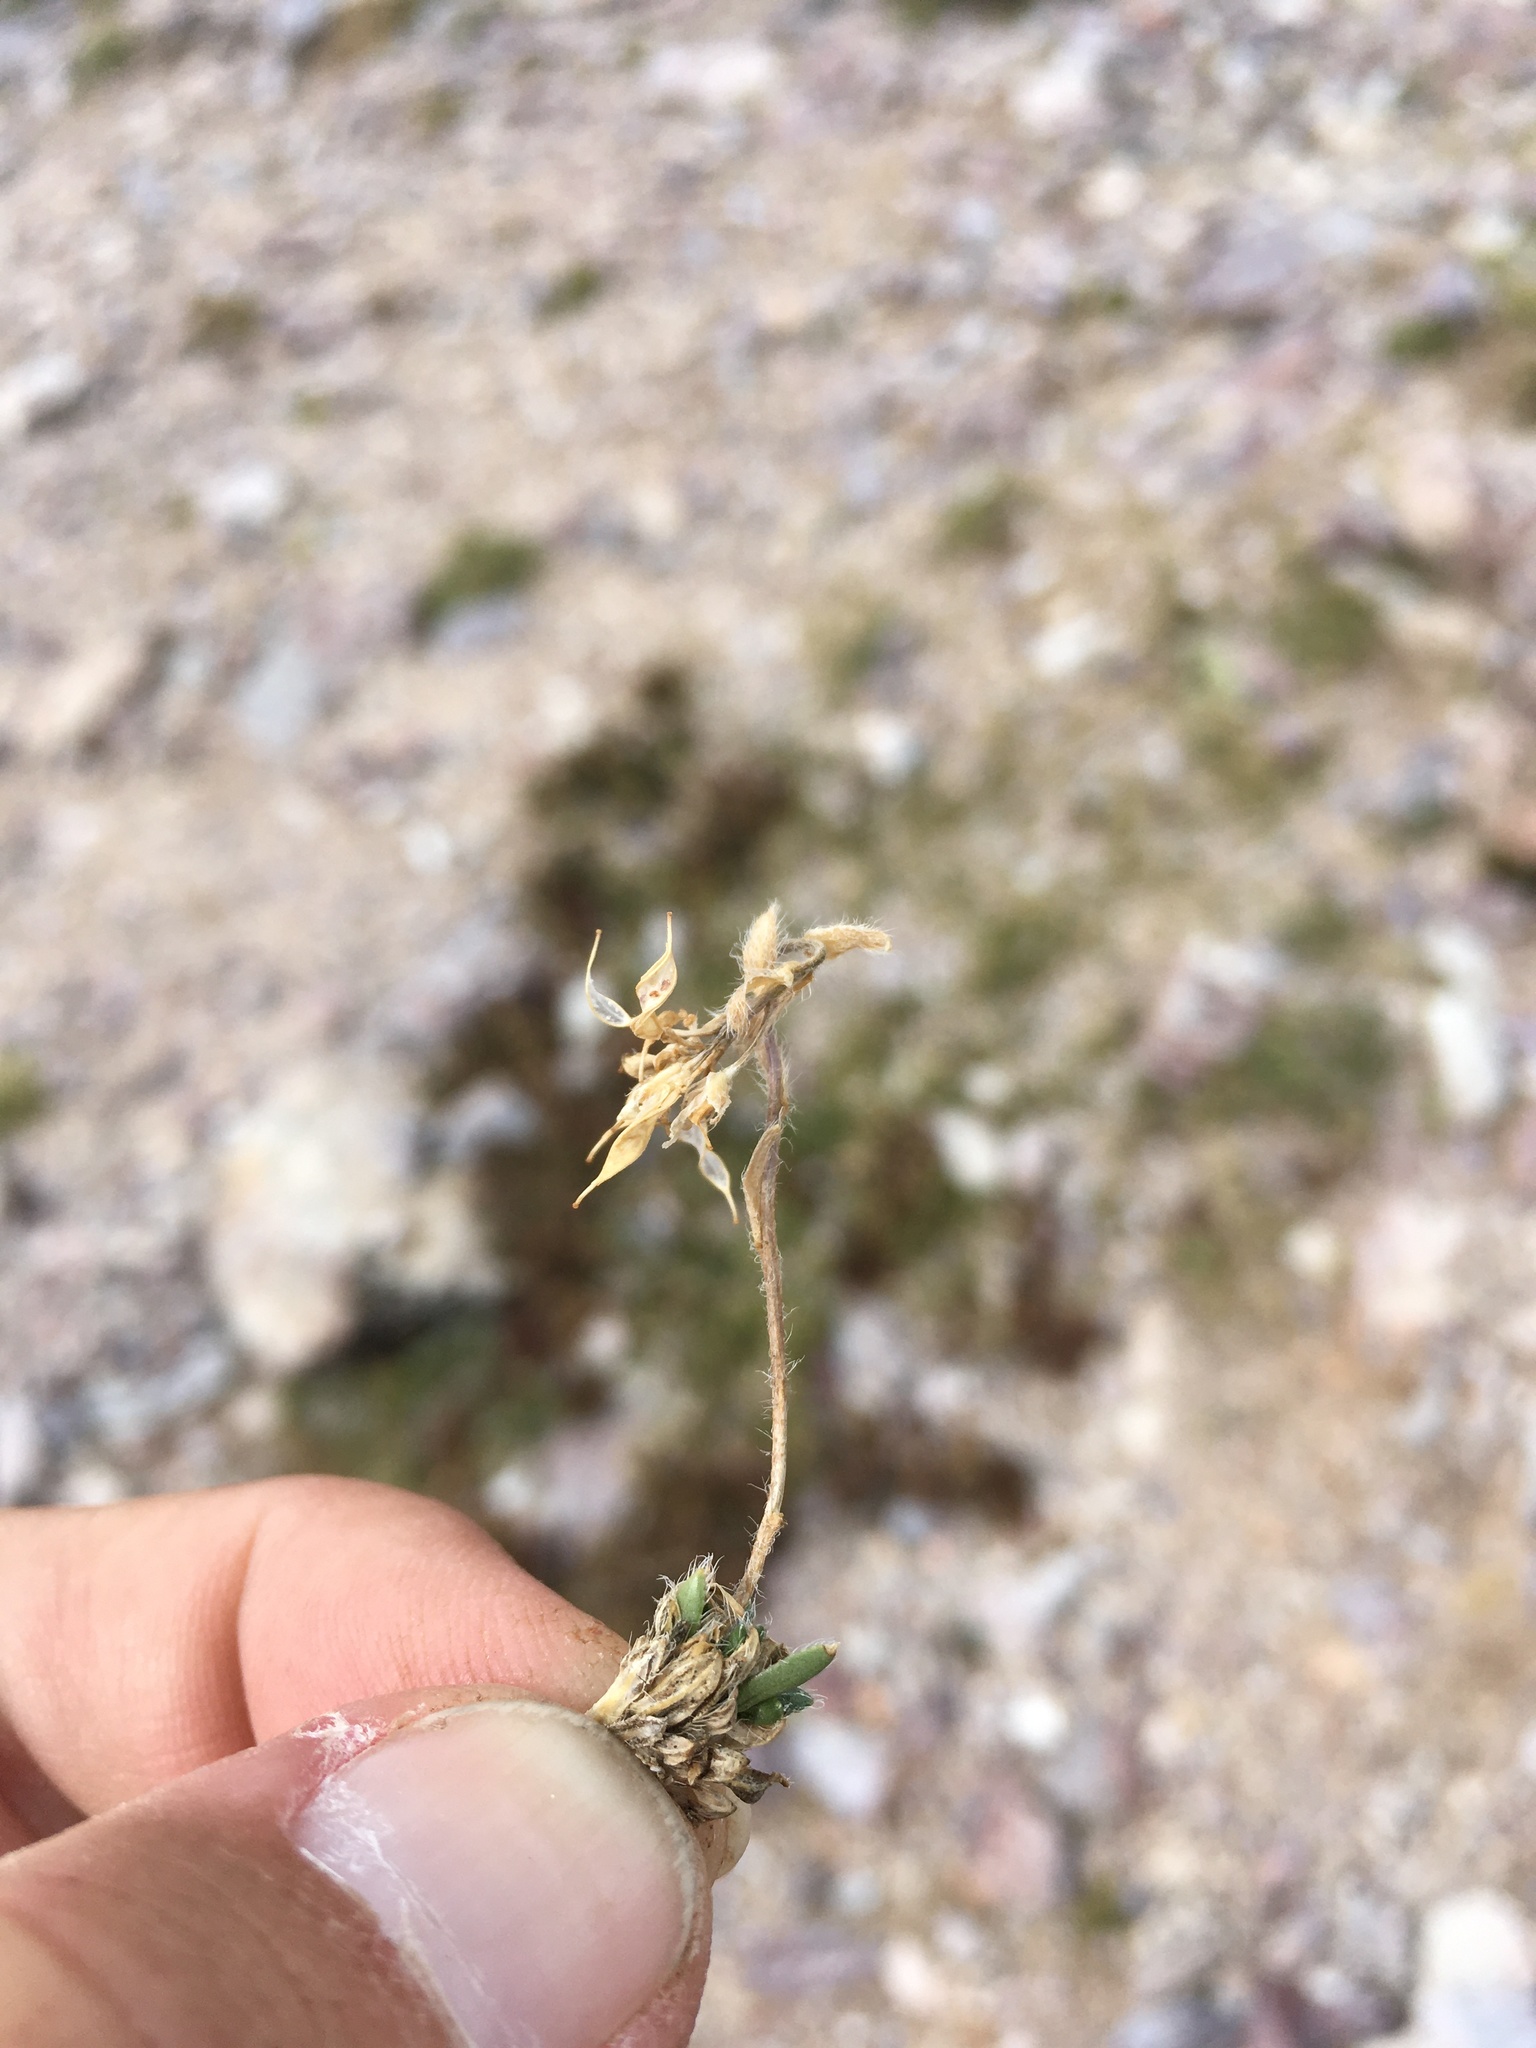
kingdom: Plantae
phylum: Tracheophyta
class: Magnoliopsida
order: Brassicales
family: Brassicaceae
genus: Draba
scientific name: Draba heilii
